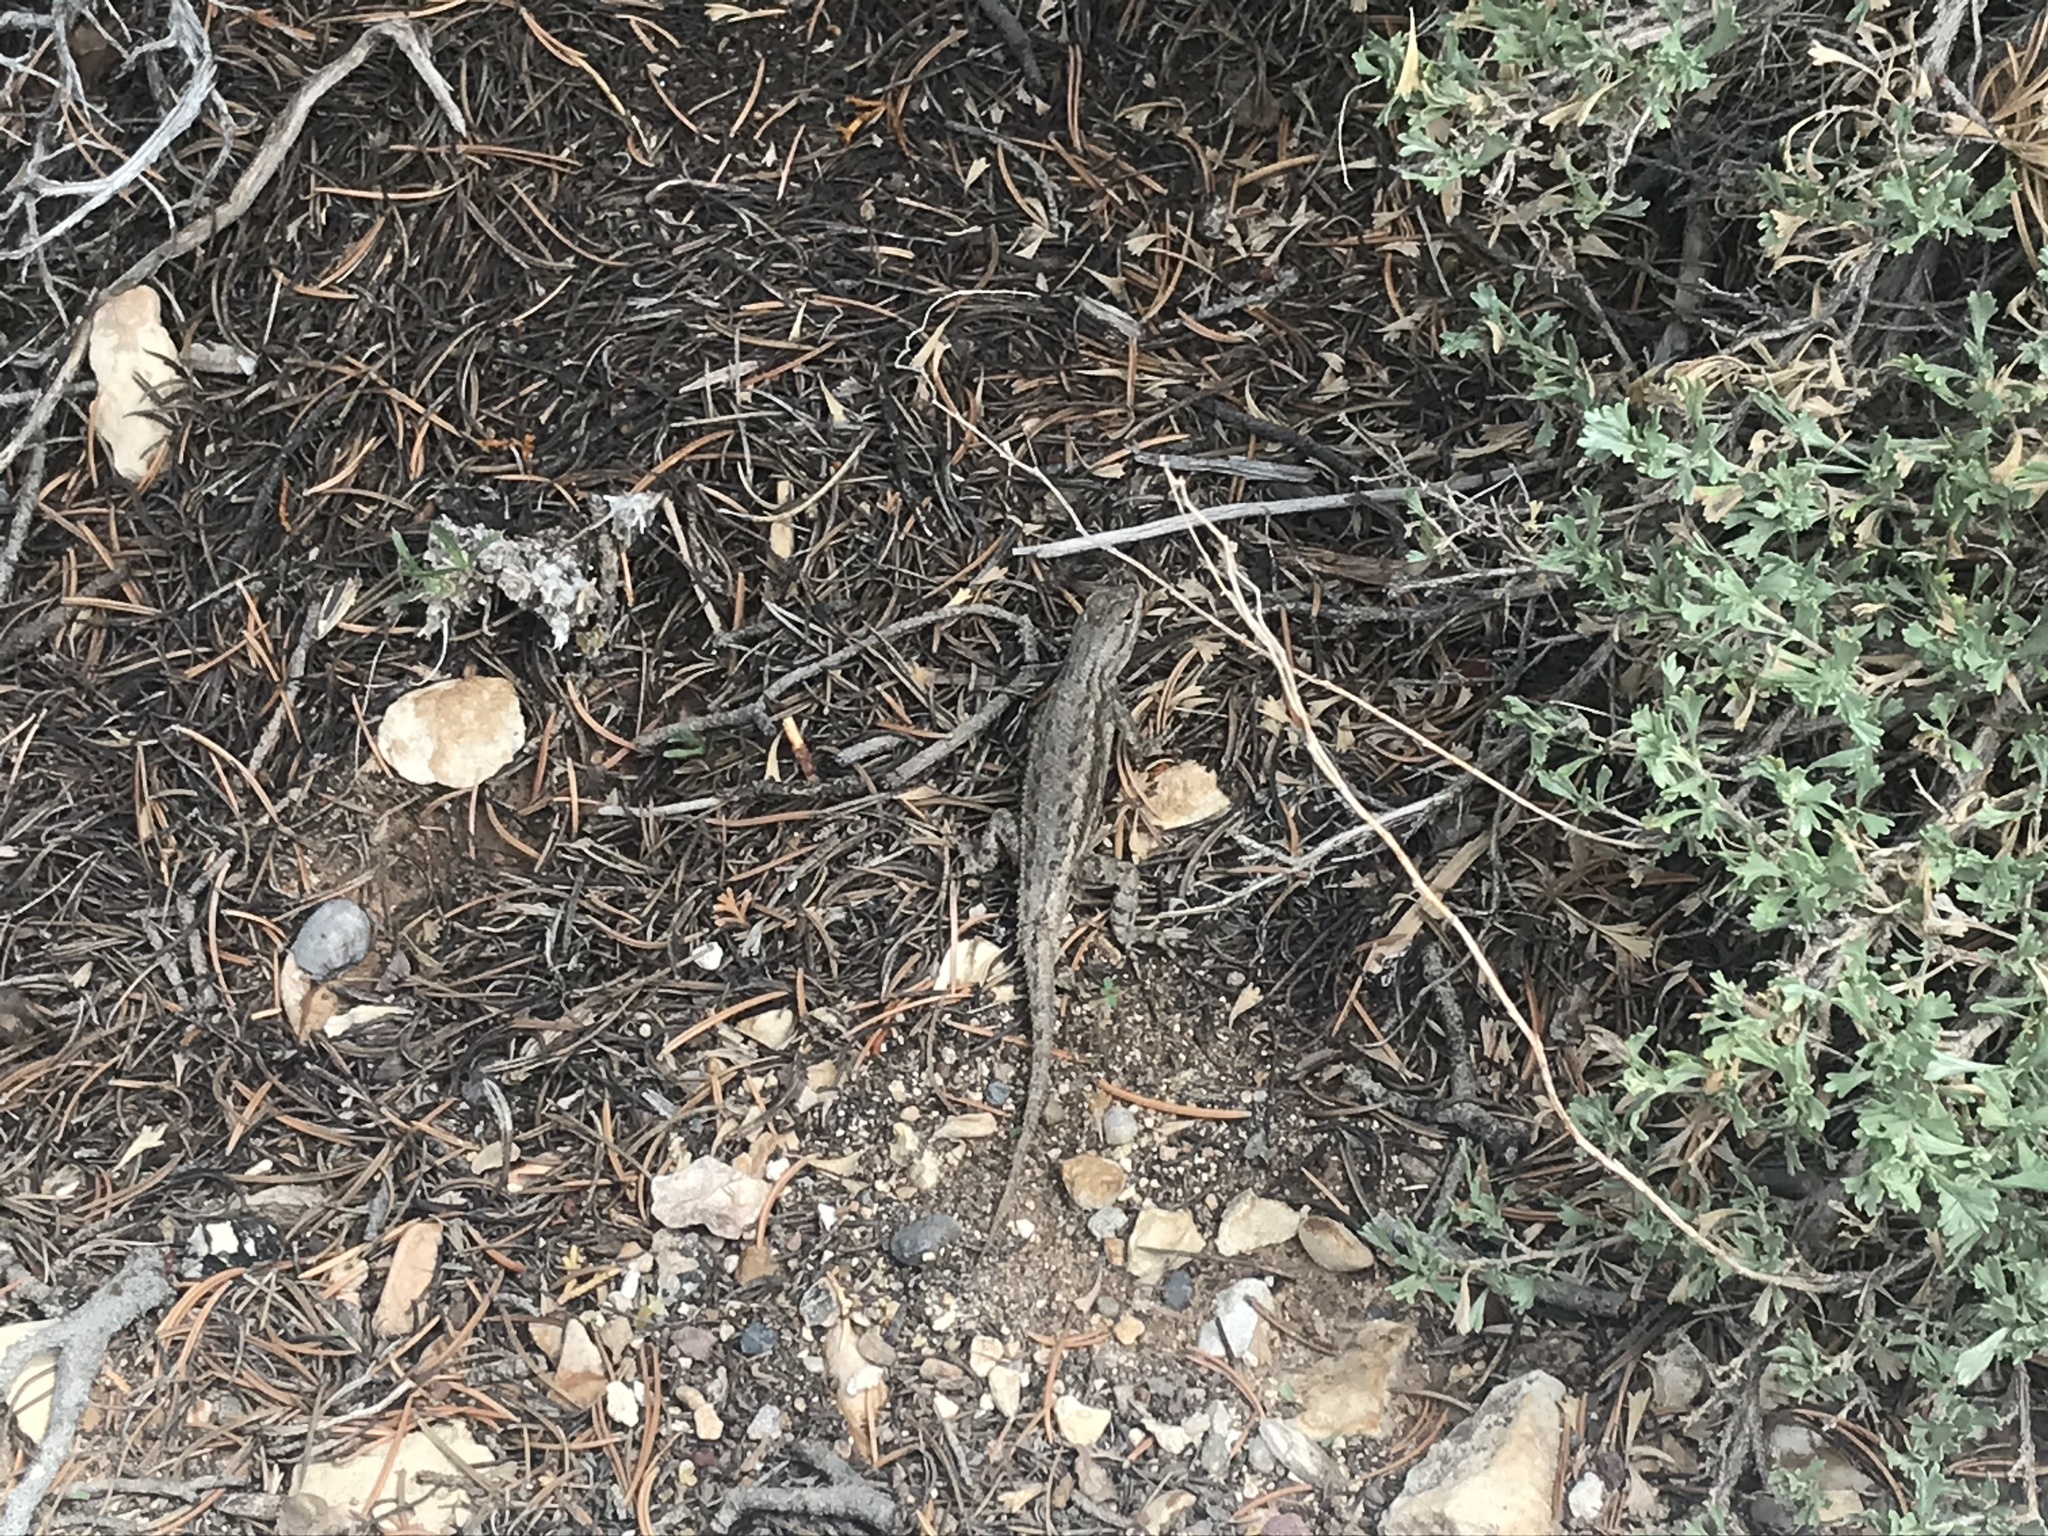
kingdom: Animalia
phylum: Chordata
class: Squamata
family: Phrynosomatidae
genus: Sceloporus
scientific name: Sceloporus tristichus
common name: Plateau fence lizard
